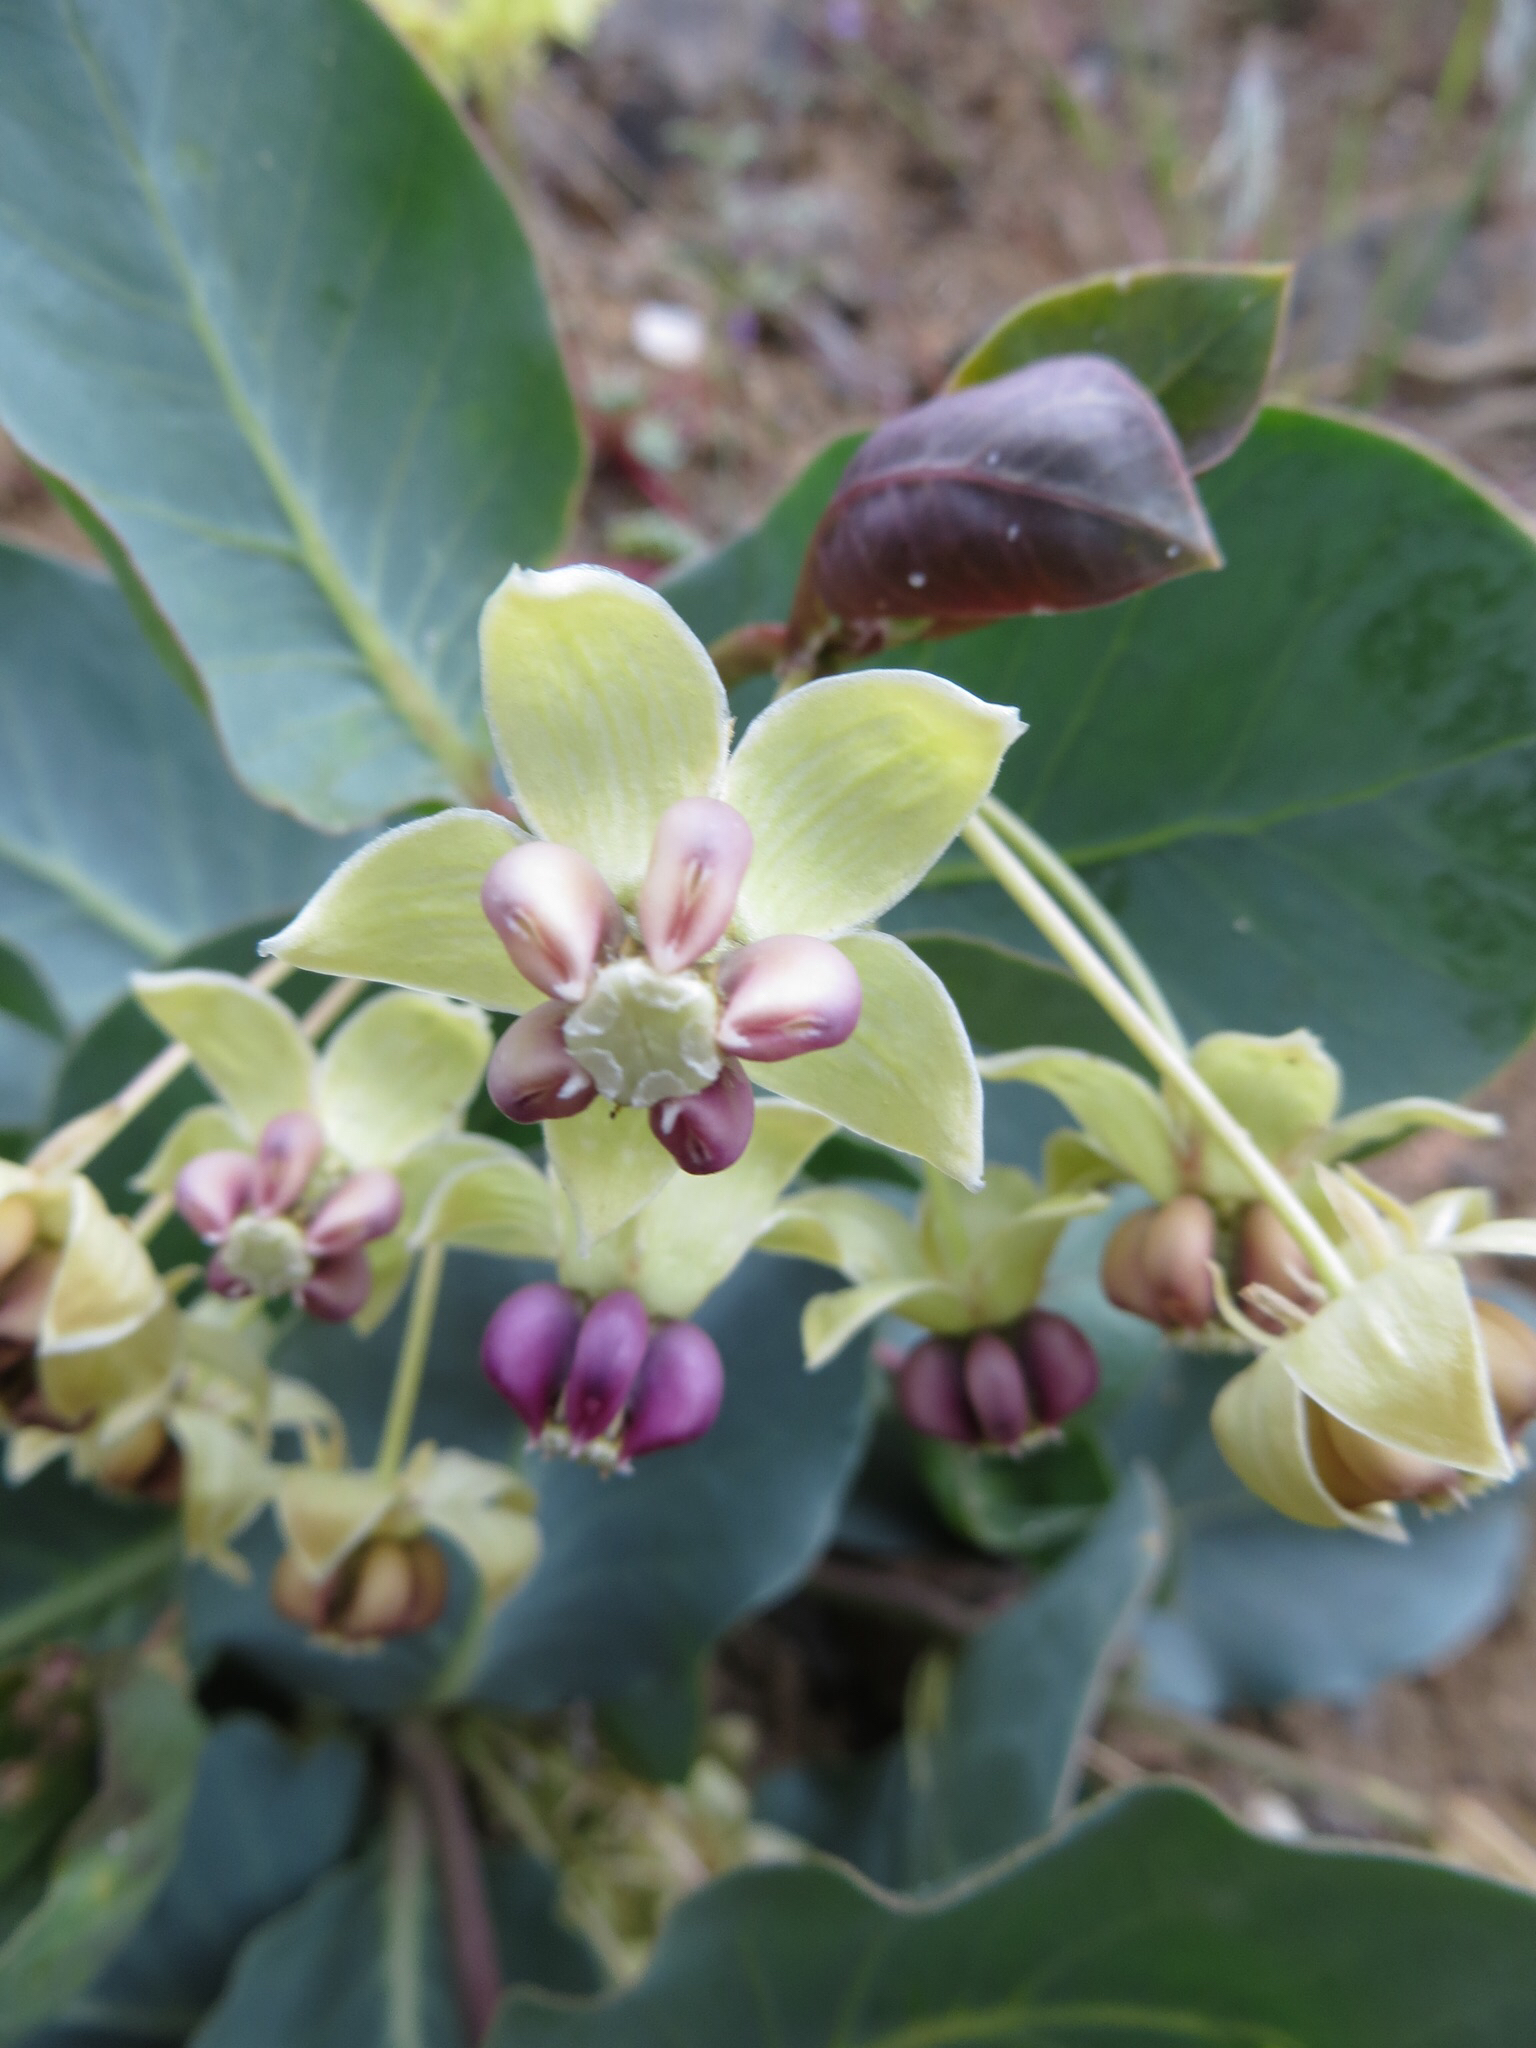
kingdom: Plantae
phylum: Tracheophyta
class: Magnoliopsida
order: Gentianales
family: Apocynaceae
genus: Asclepias
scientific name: Asclepias cryptoceras
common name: Humboldt mountains milkweed
